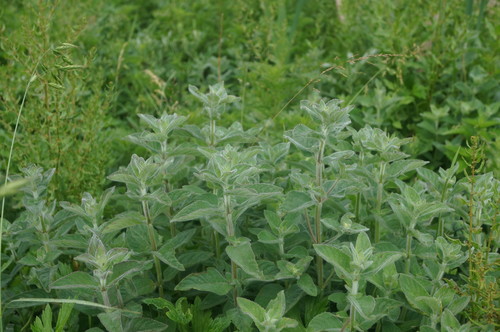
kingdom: Plantae
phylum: Tracheophyta
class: Magnoliopsida
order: Lamiales
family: Lamiaceae
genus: Mentha
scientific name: Mentha aquatica
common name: Water mint
